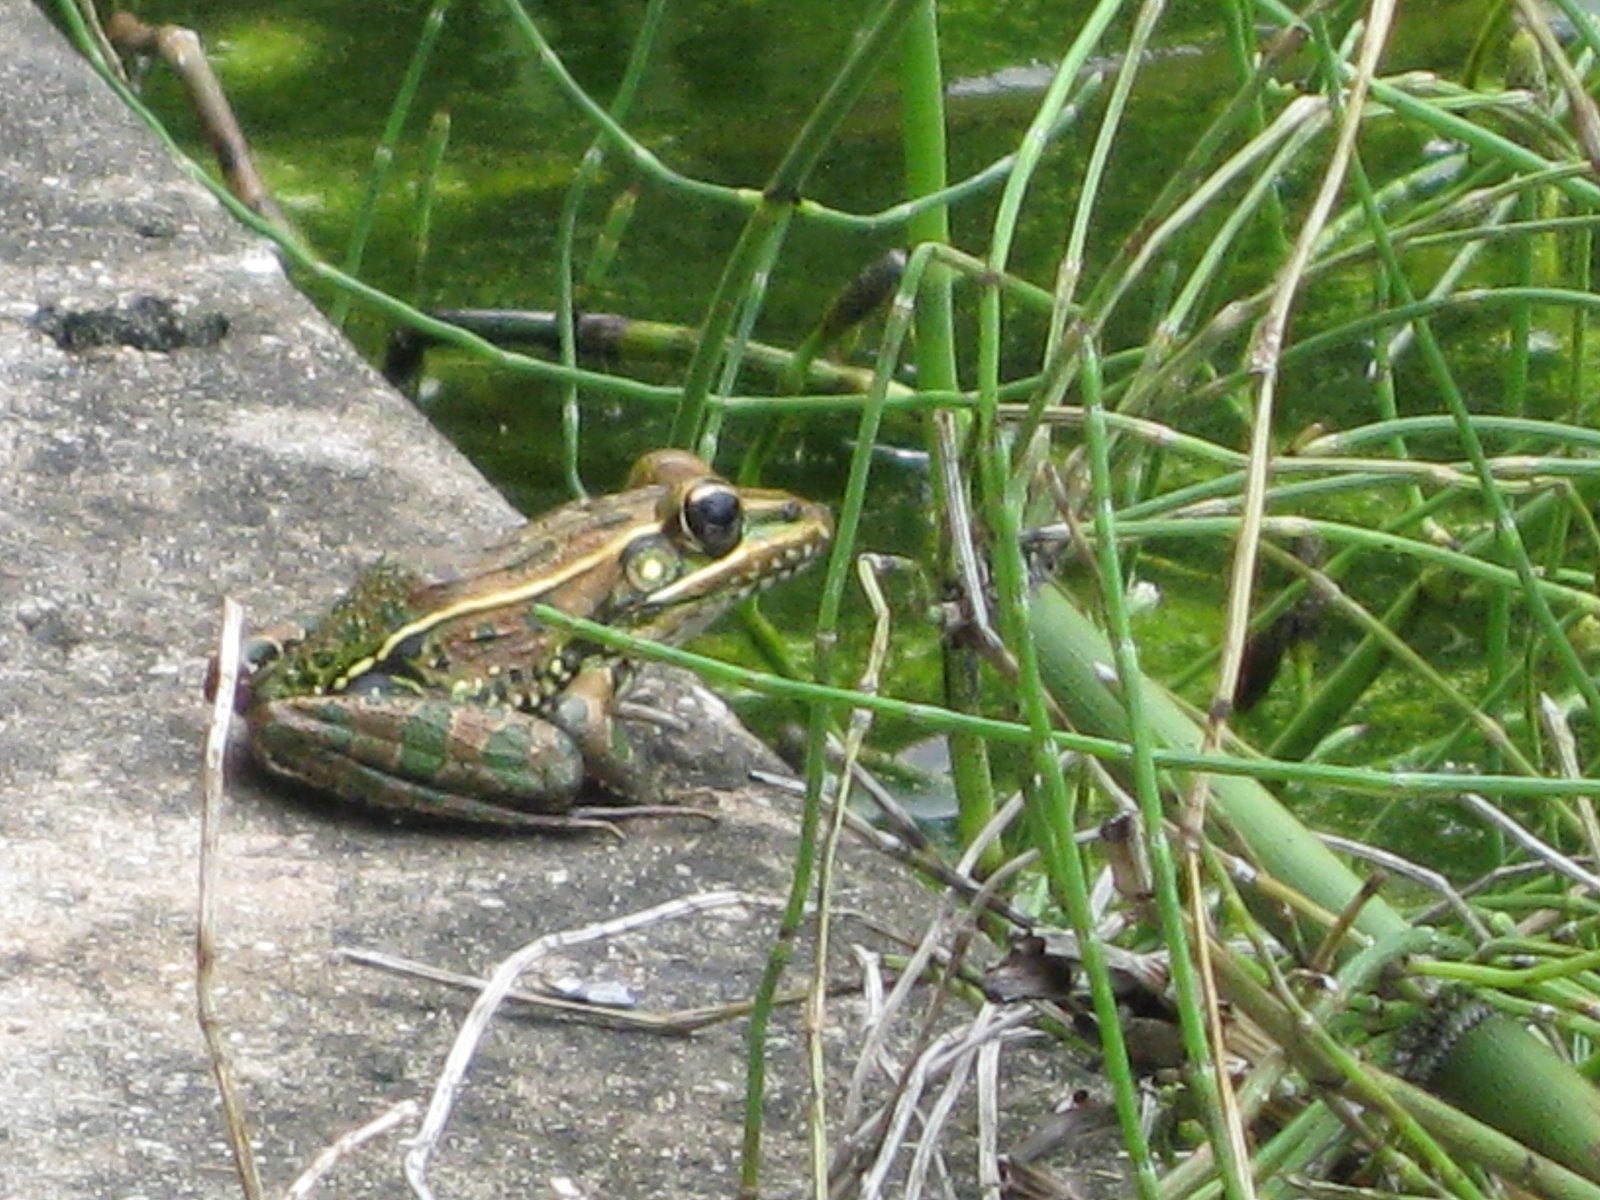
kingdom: Animalia
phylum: Chordata
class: Amphibia
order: Anura
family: Ranidae
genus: Lithobates
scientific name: Lithobates sphenocephalus
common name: Southern leopard frog
